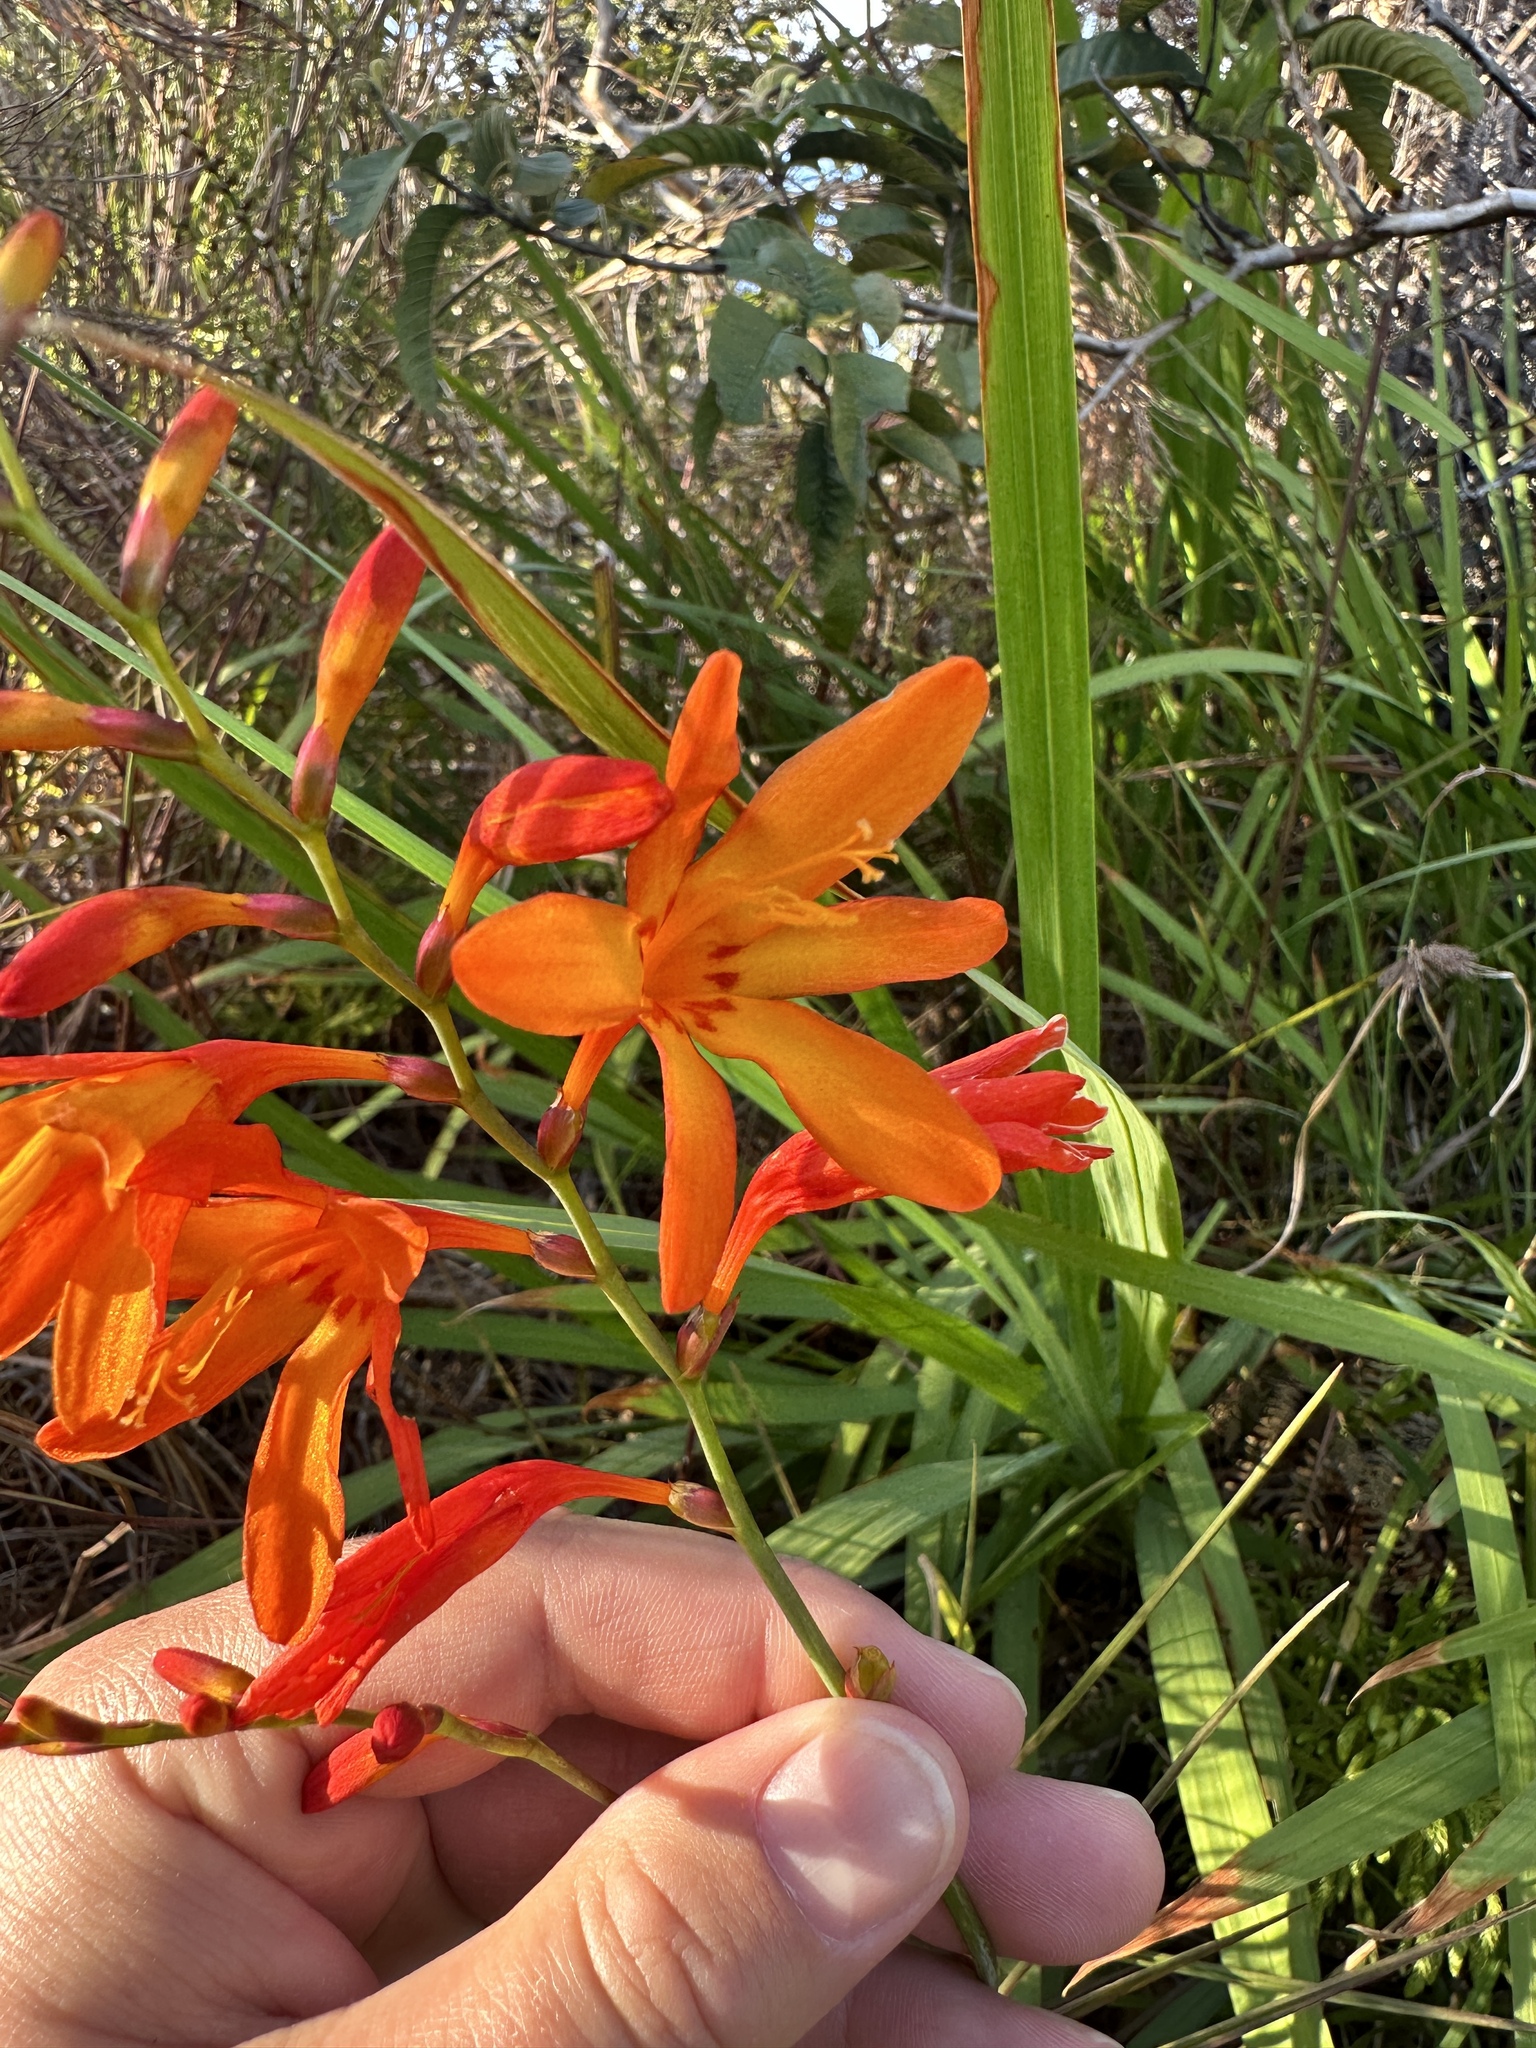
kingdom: Plantae
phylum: Tracheophyta
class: Liliopsida
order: Asparagales
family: Iridaceae
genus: Crocosmia
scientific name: Crocosmia crocosmiiflora
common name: Montbretia
